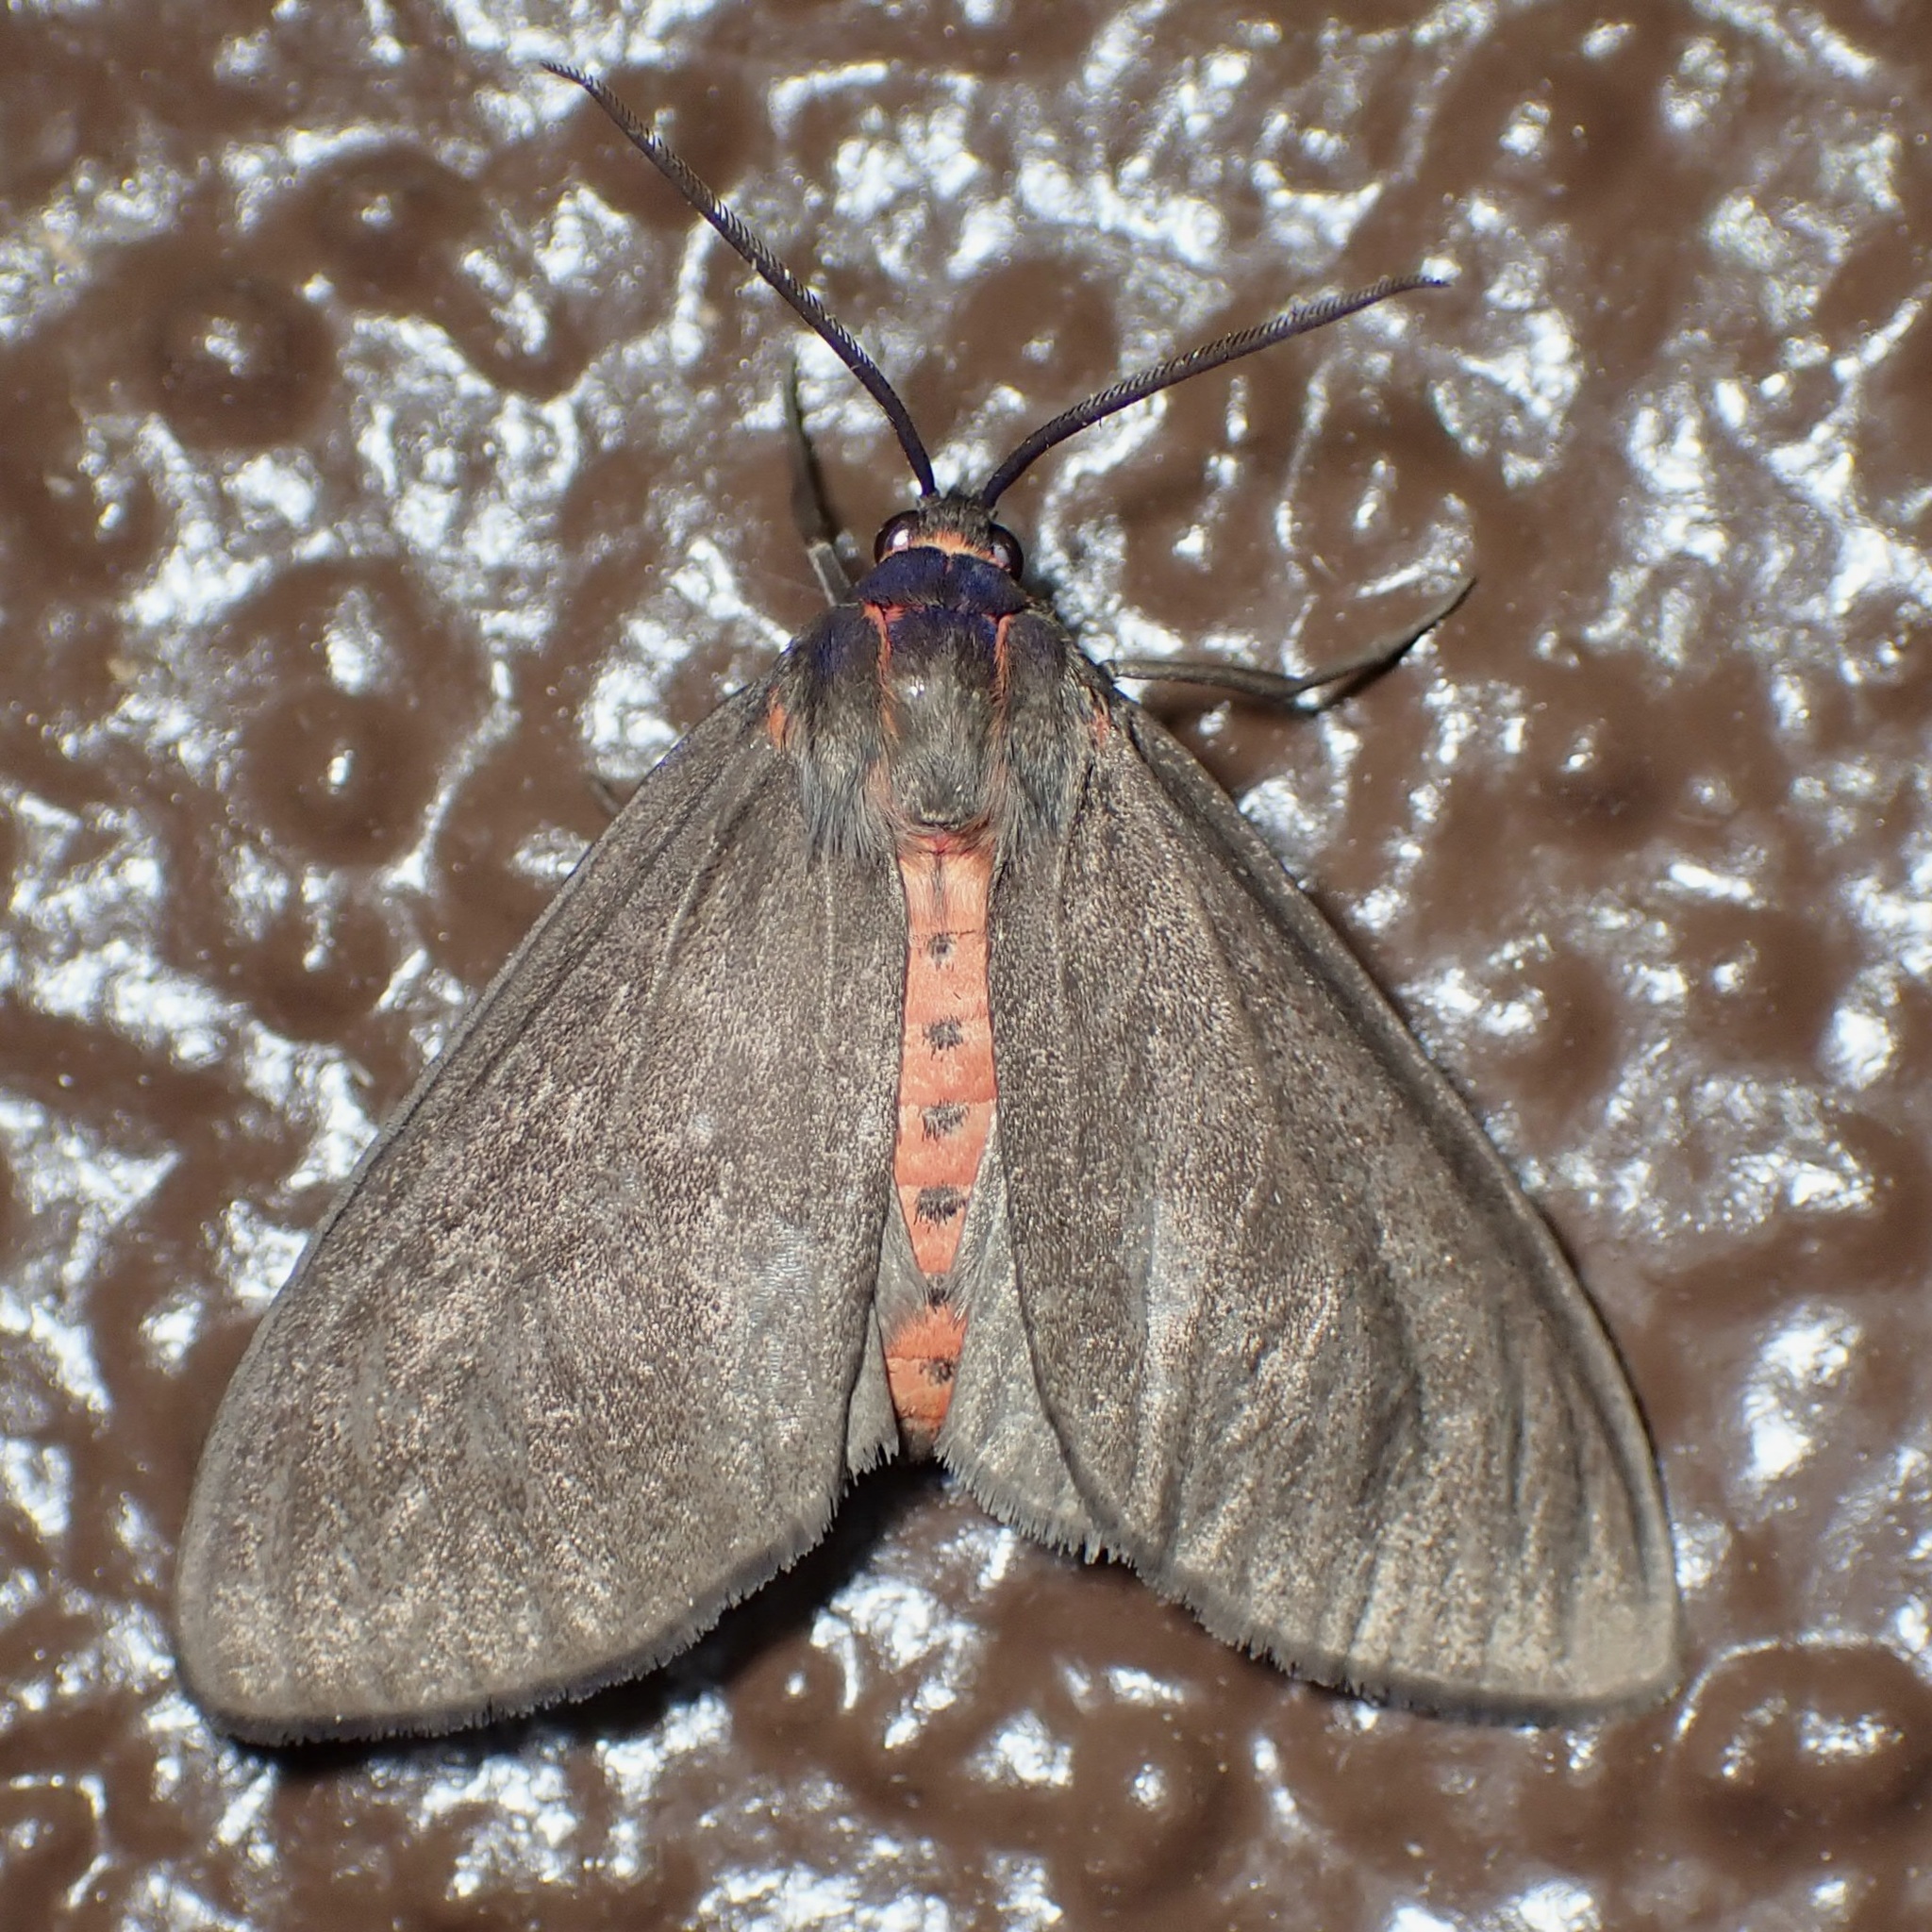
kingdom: Animalia
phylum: Arthropoda
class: Insecta
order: Lepidoptera
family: Erebidae
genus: Euchaetes
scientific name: Euchaetes fusca
